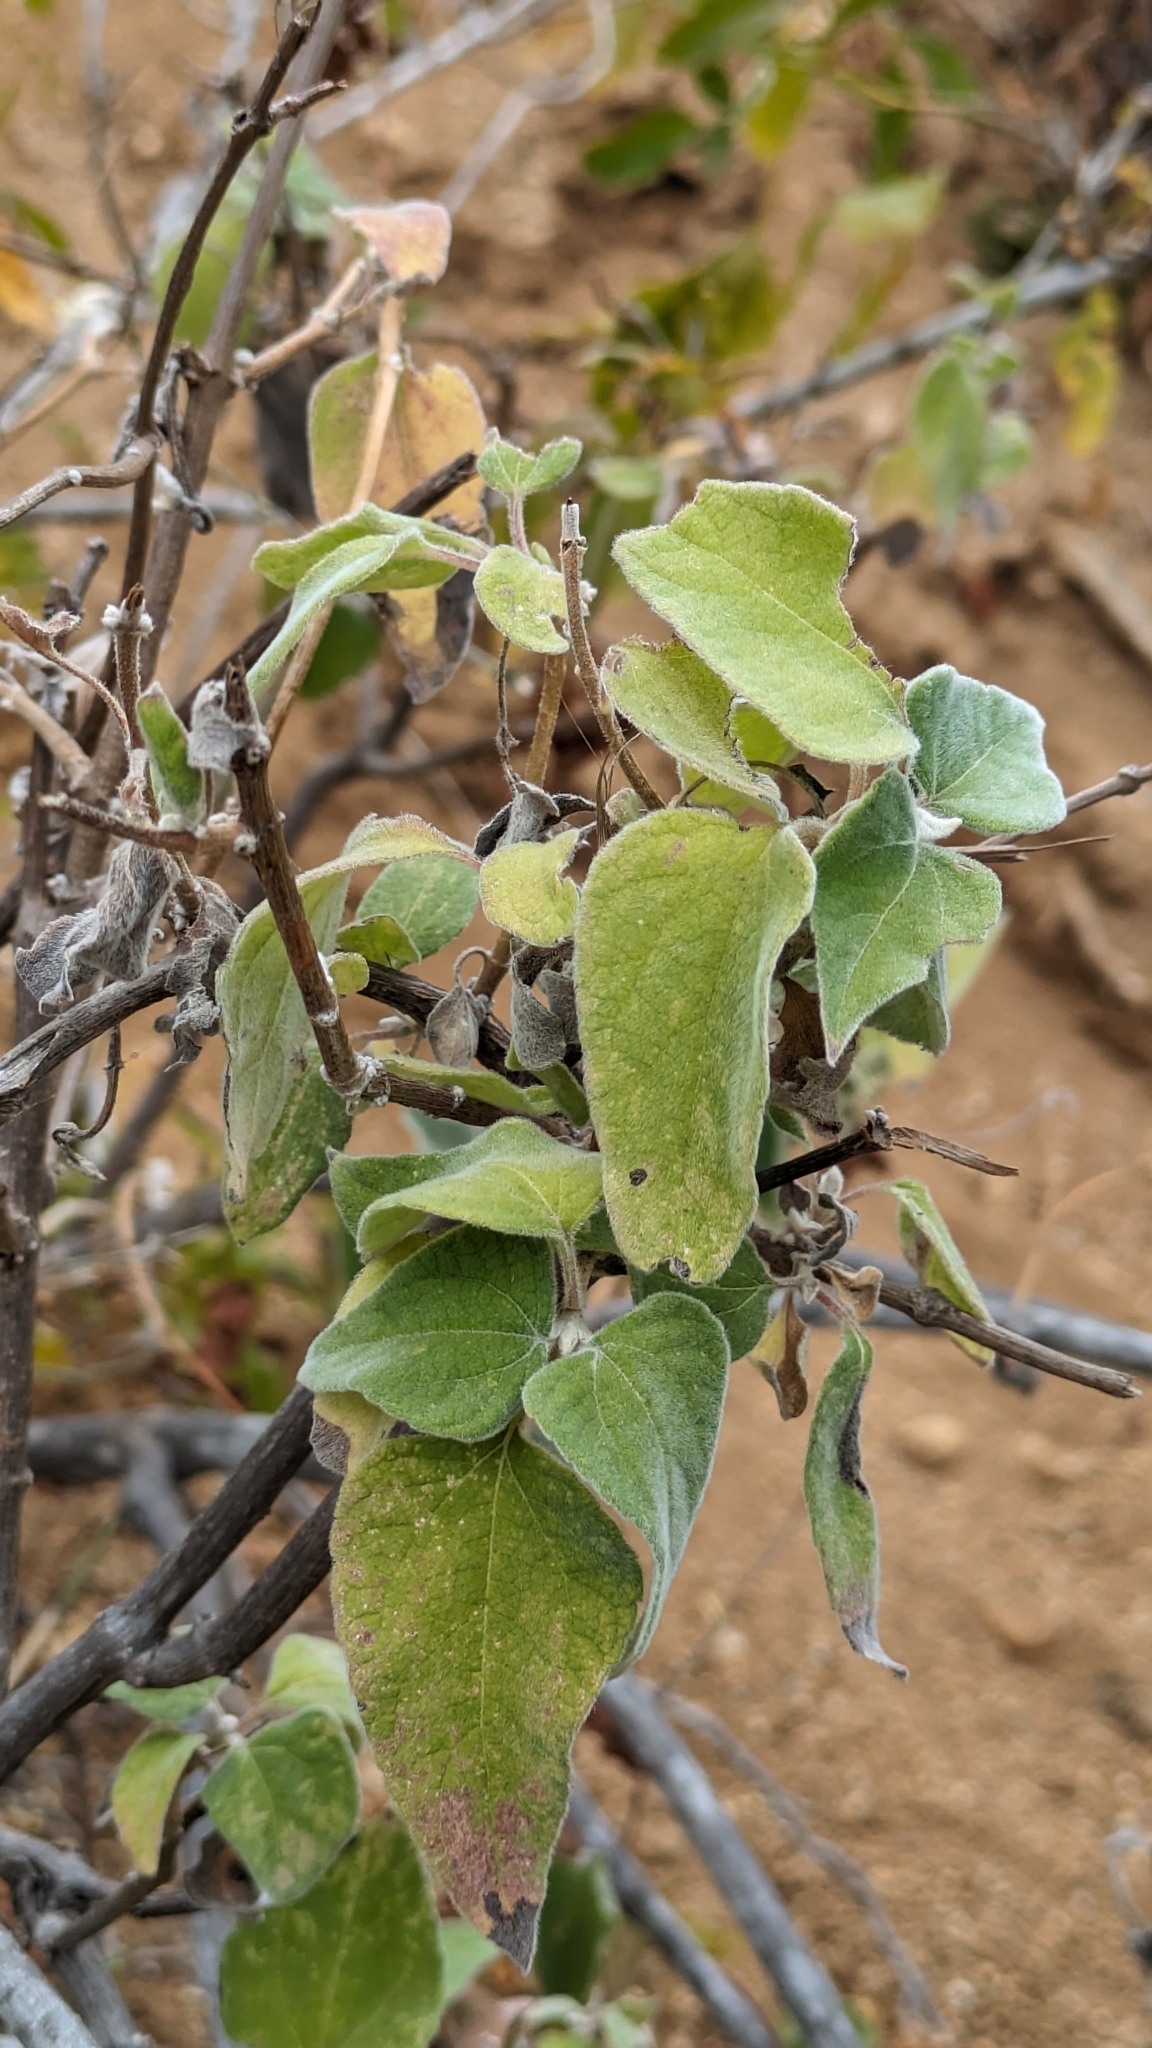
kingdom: Plantae
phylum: Tracheophyta
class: Magnoliopsida
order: Asterales
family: Asteraceae
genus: Bahiopsis
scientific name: Bahiopsis tomentosa
